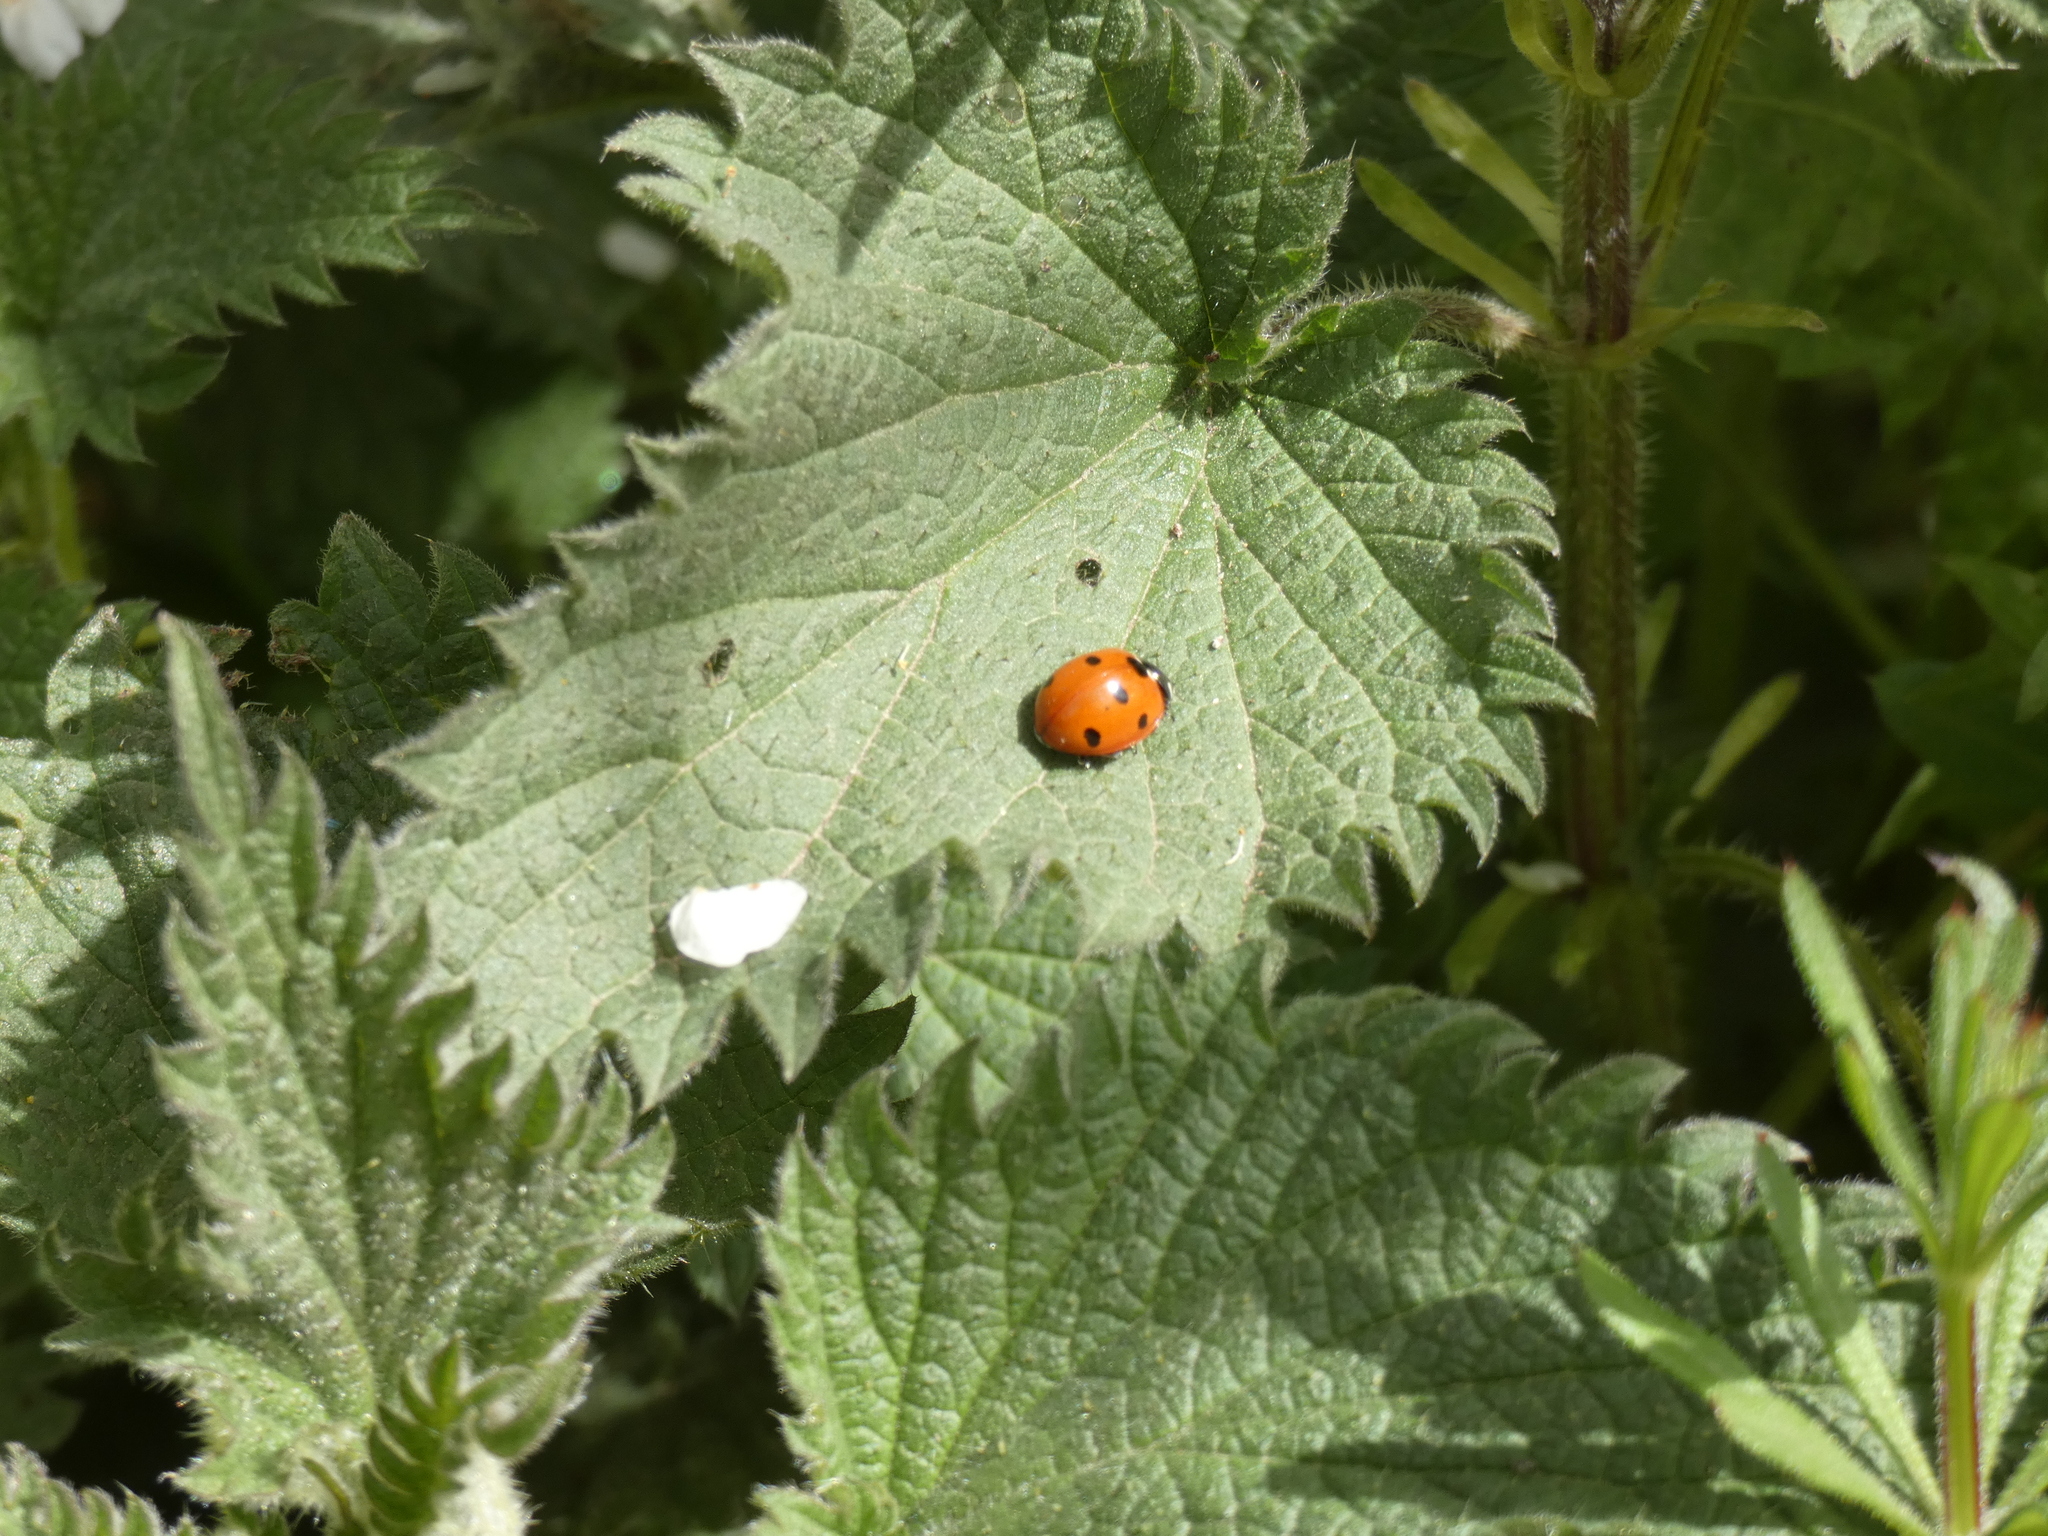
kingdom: Animalia
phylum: Arthropoda
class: Insecta
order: Coleoptera
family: Coccinellidae
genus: Coccinella
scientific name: Coccinella septempunctata
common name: Sevenspotted lady beetle
